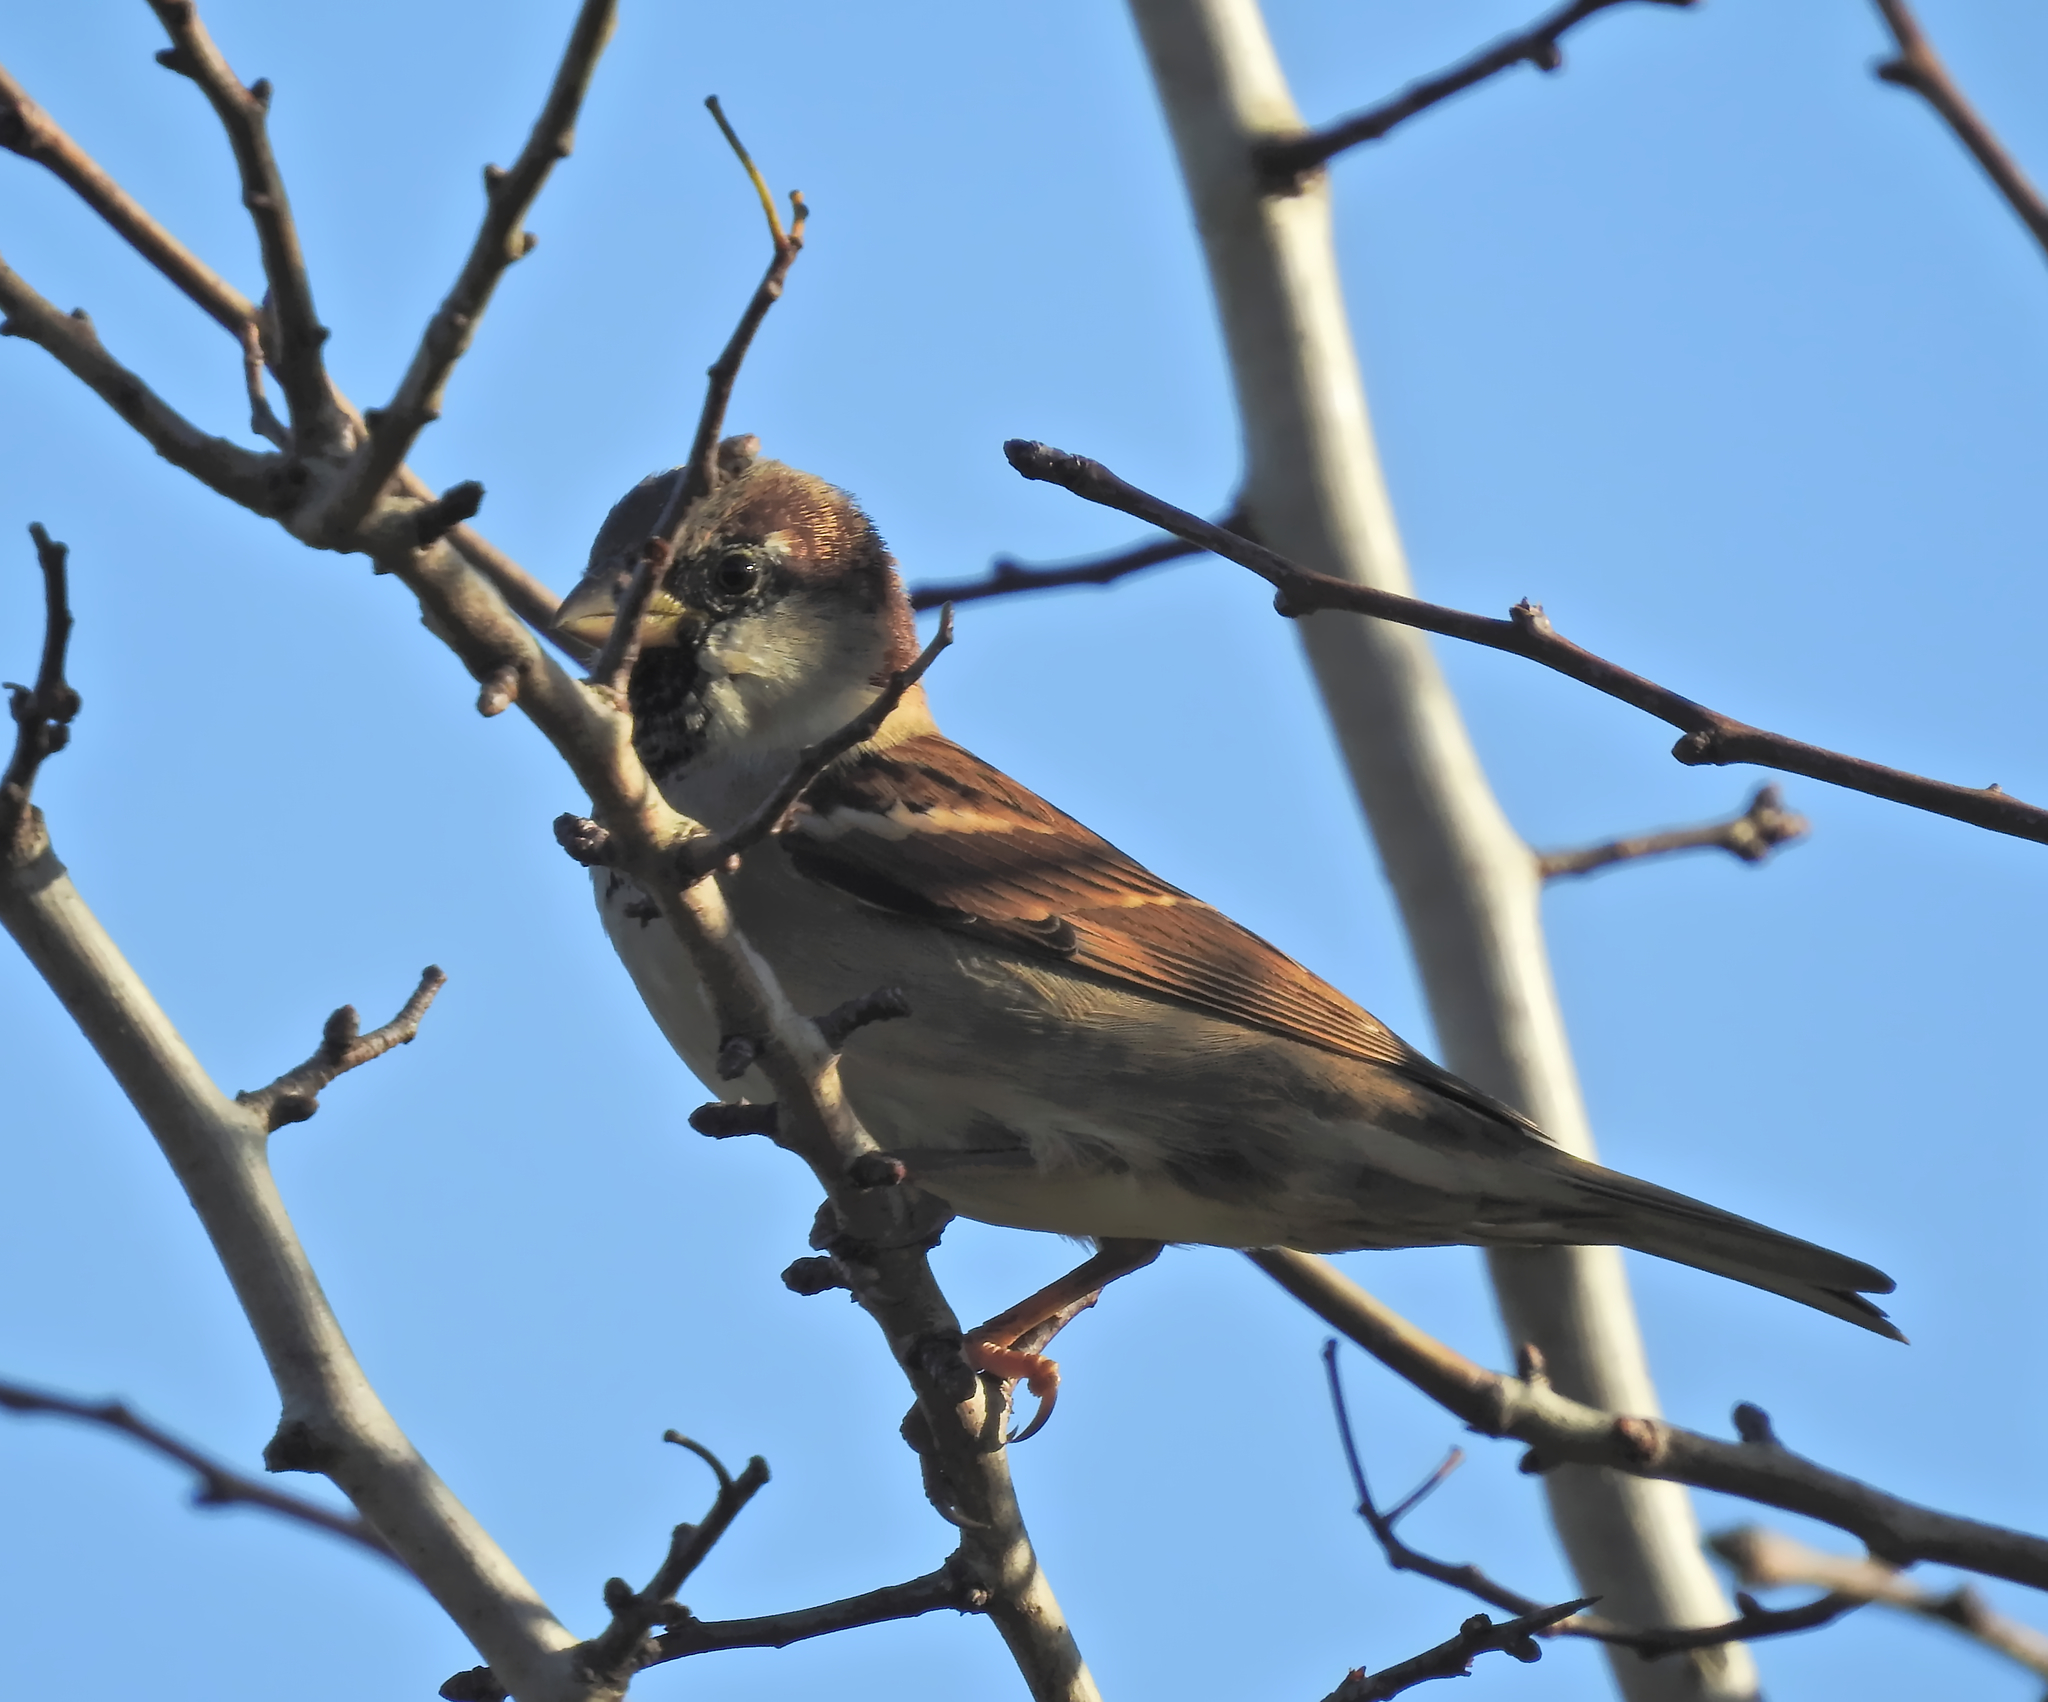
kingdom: Animalia
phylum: Chordata
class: Aves
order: Passeriformes
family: Passeridae
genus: Passer
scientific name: Passer domesticus
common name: House sparrow
